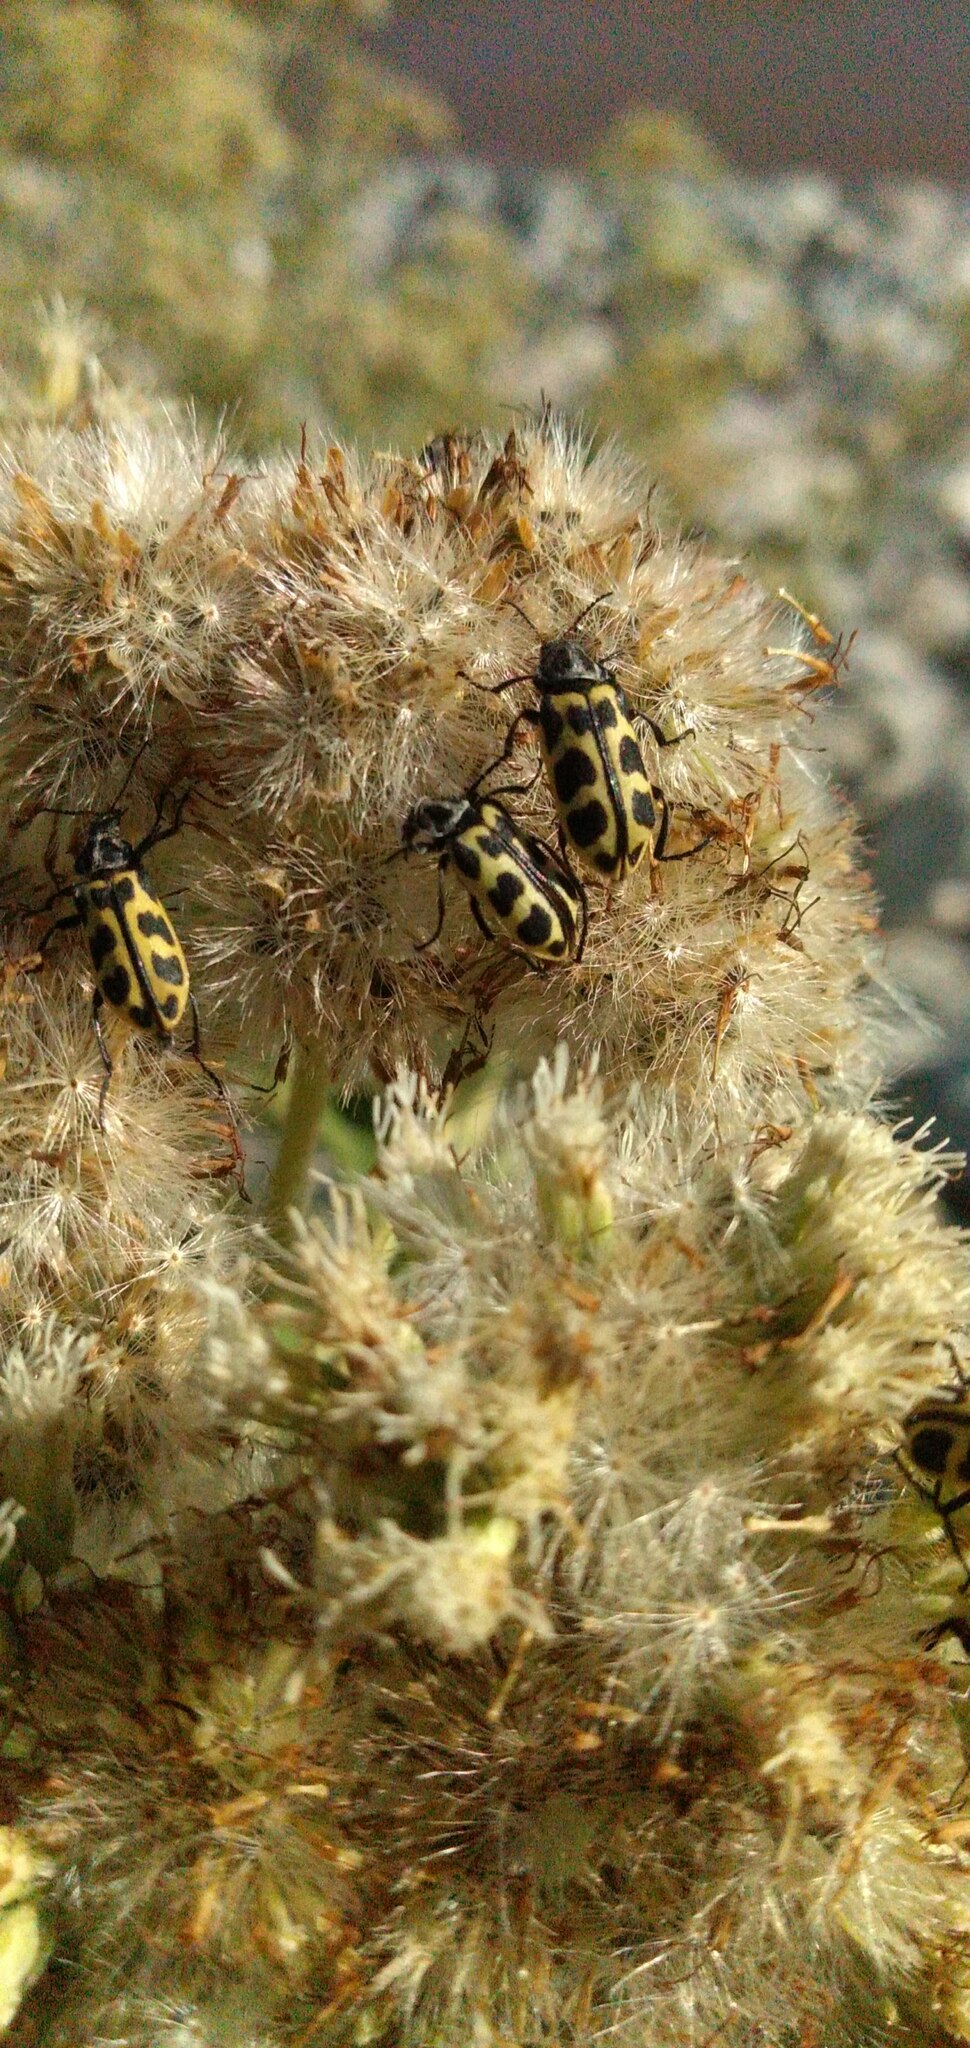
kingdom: Animalia
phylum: Arthropoda
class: Insecta
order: Coleoptera
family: Melyridae
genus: Astylus
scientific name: Astylus atromaculatus
